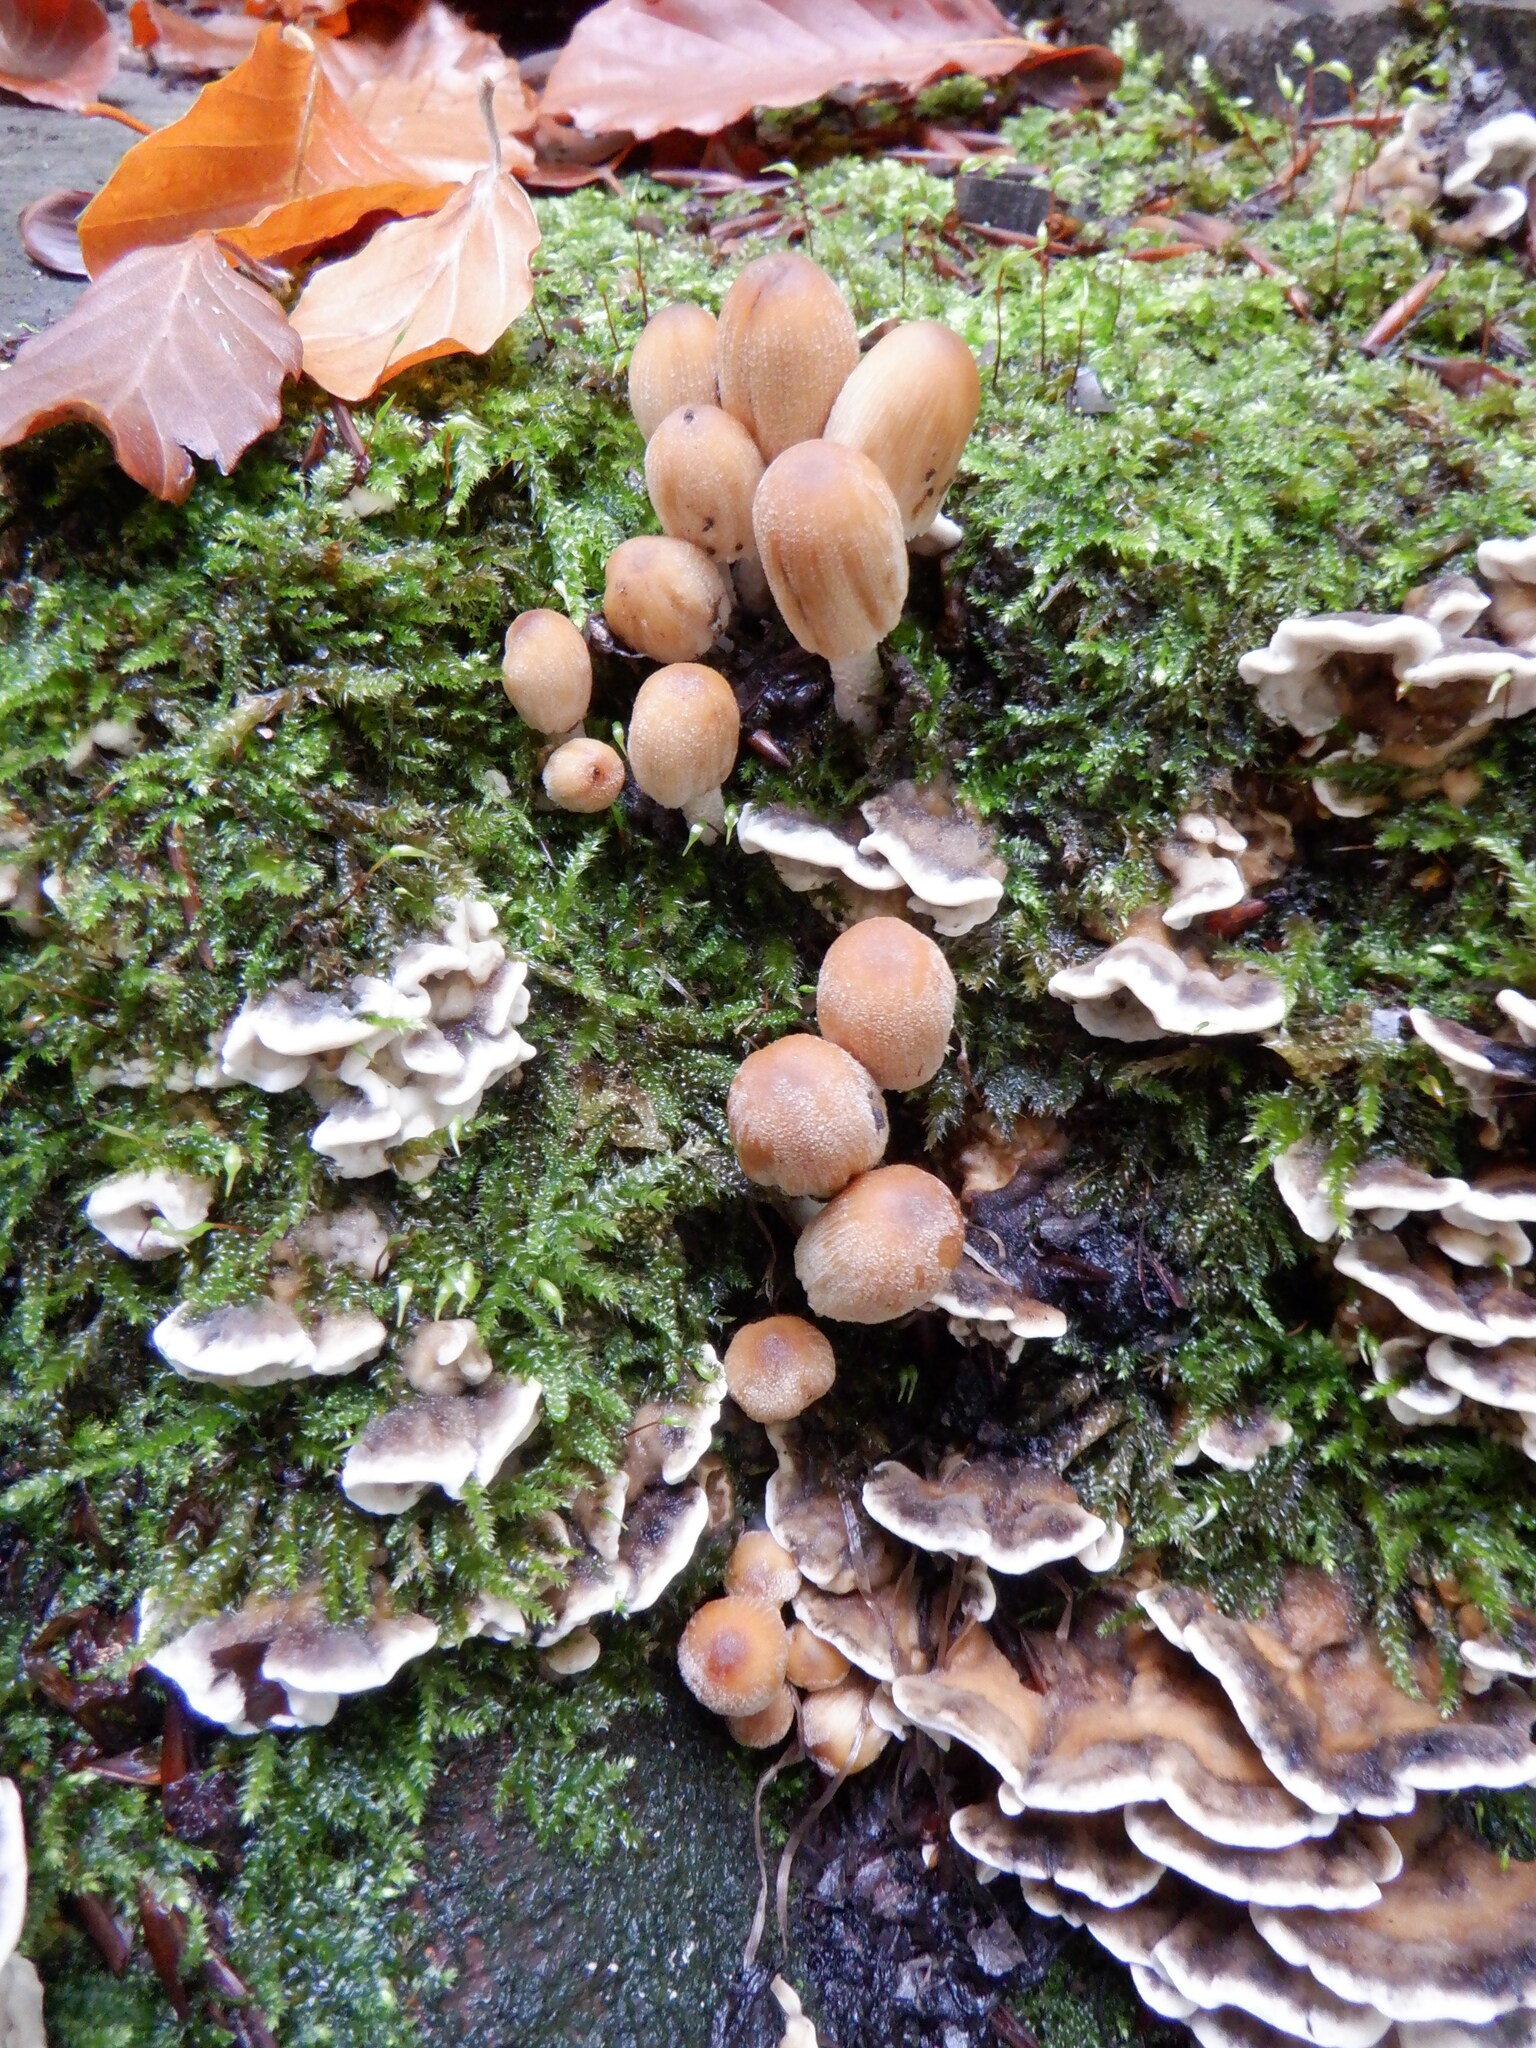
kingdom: Fungi
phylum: Basidiomycota
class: Agaricomycetes
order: Agaricales
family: Psathyrellaceae
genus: Coprinellus
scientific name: Coprinellus micaceus
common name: Glistening ink-cap
